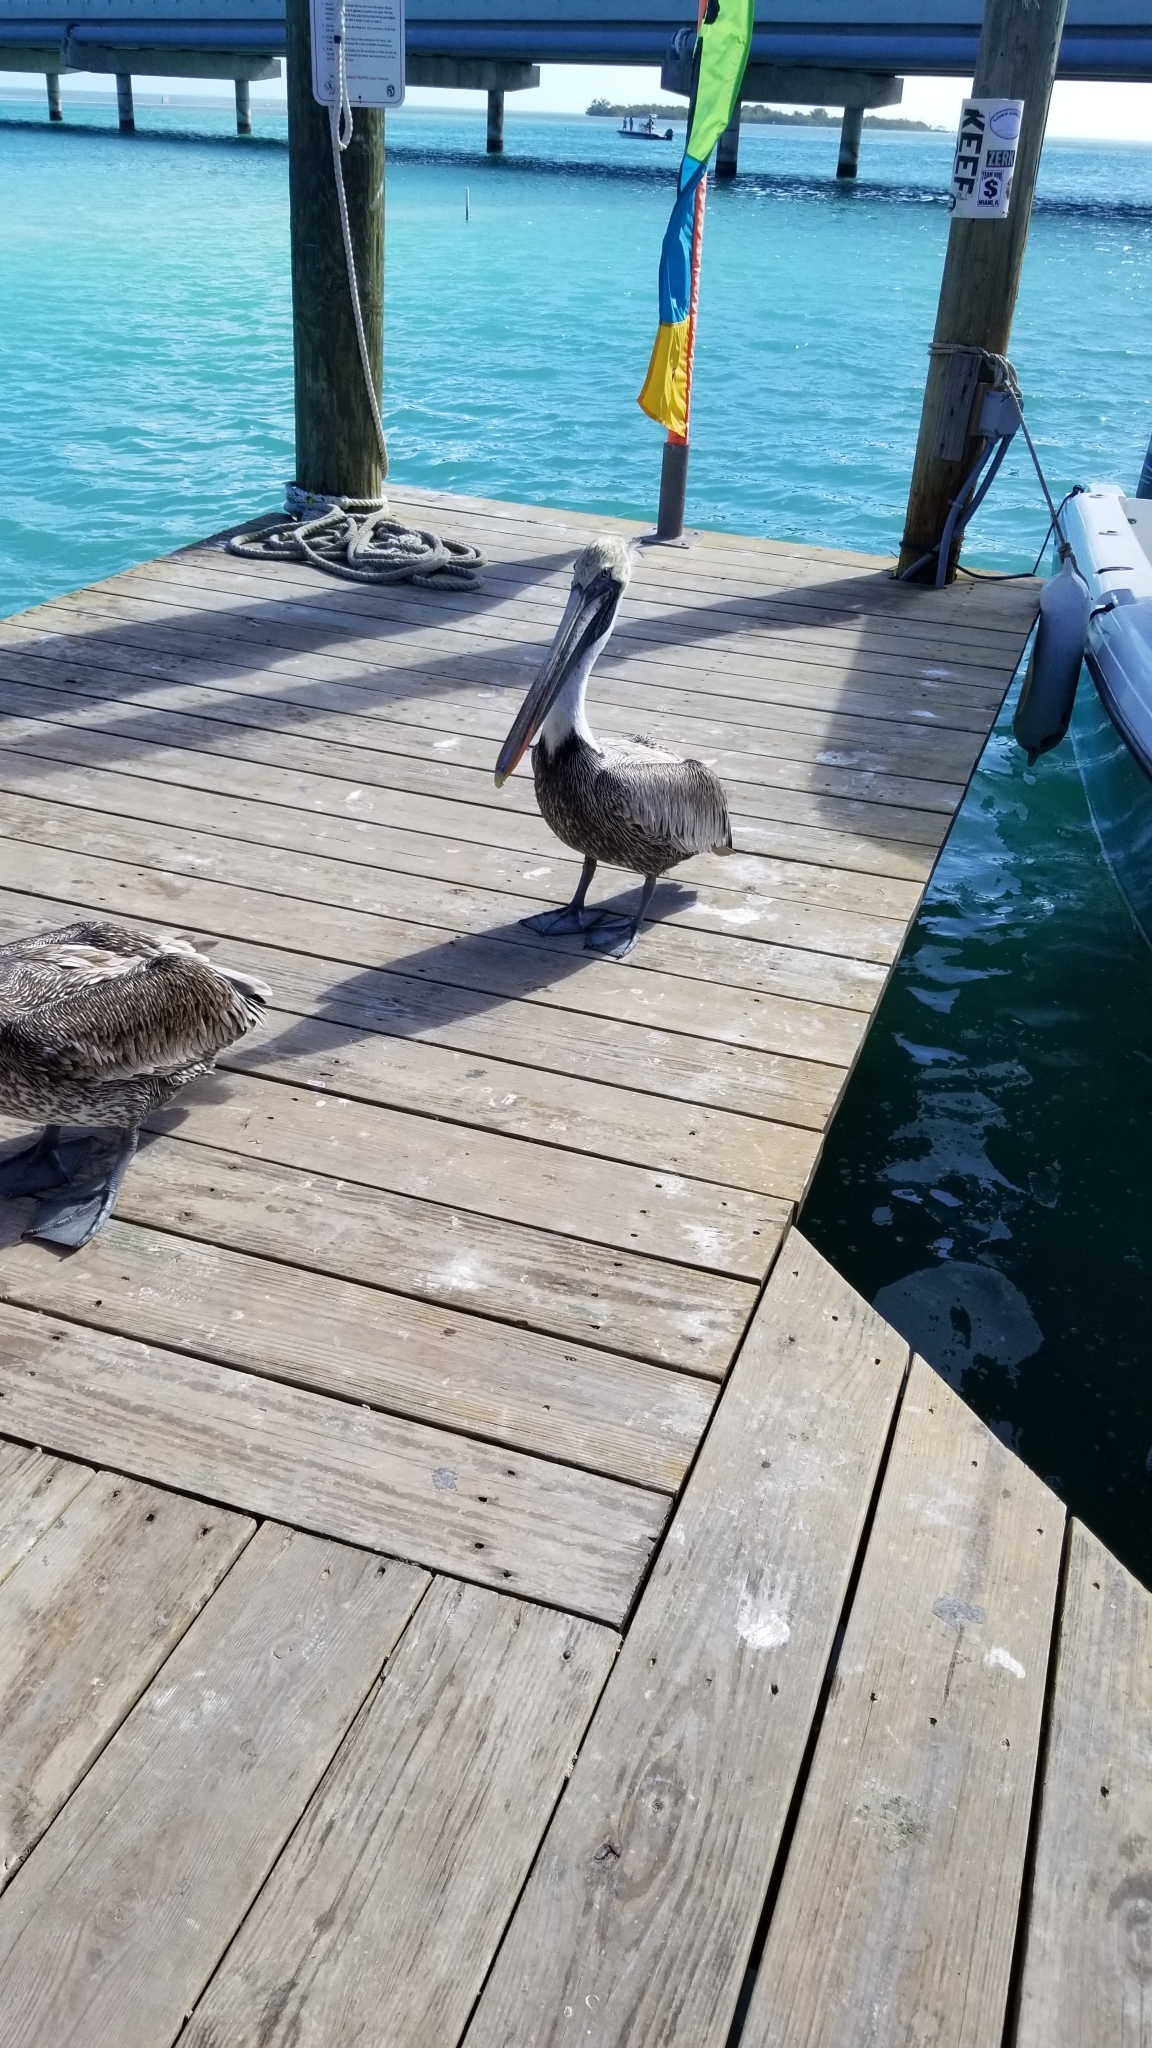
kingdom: Animalia
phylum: Chordata
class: Aves
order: Pelecaniformes
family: Pelecanidae
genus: Pelecanus
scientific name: Pelecanus occidentalis
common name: Brown pelican
